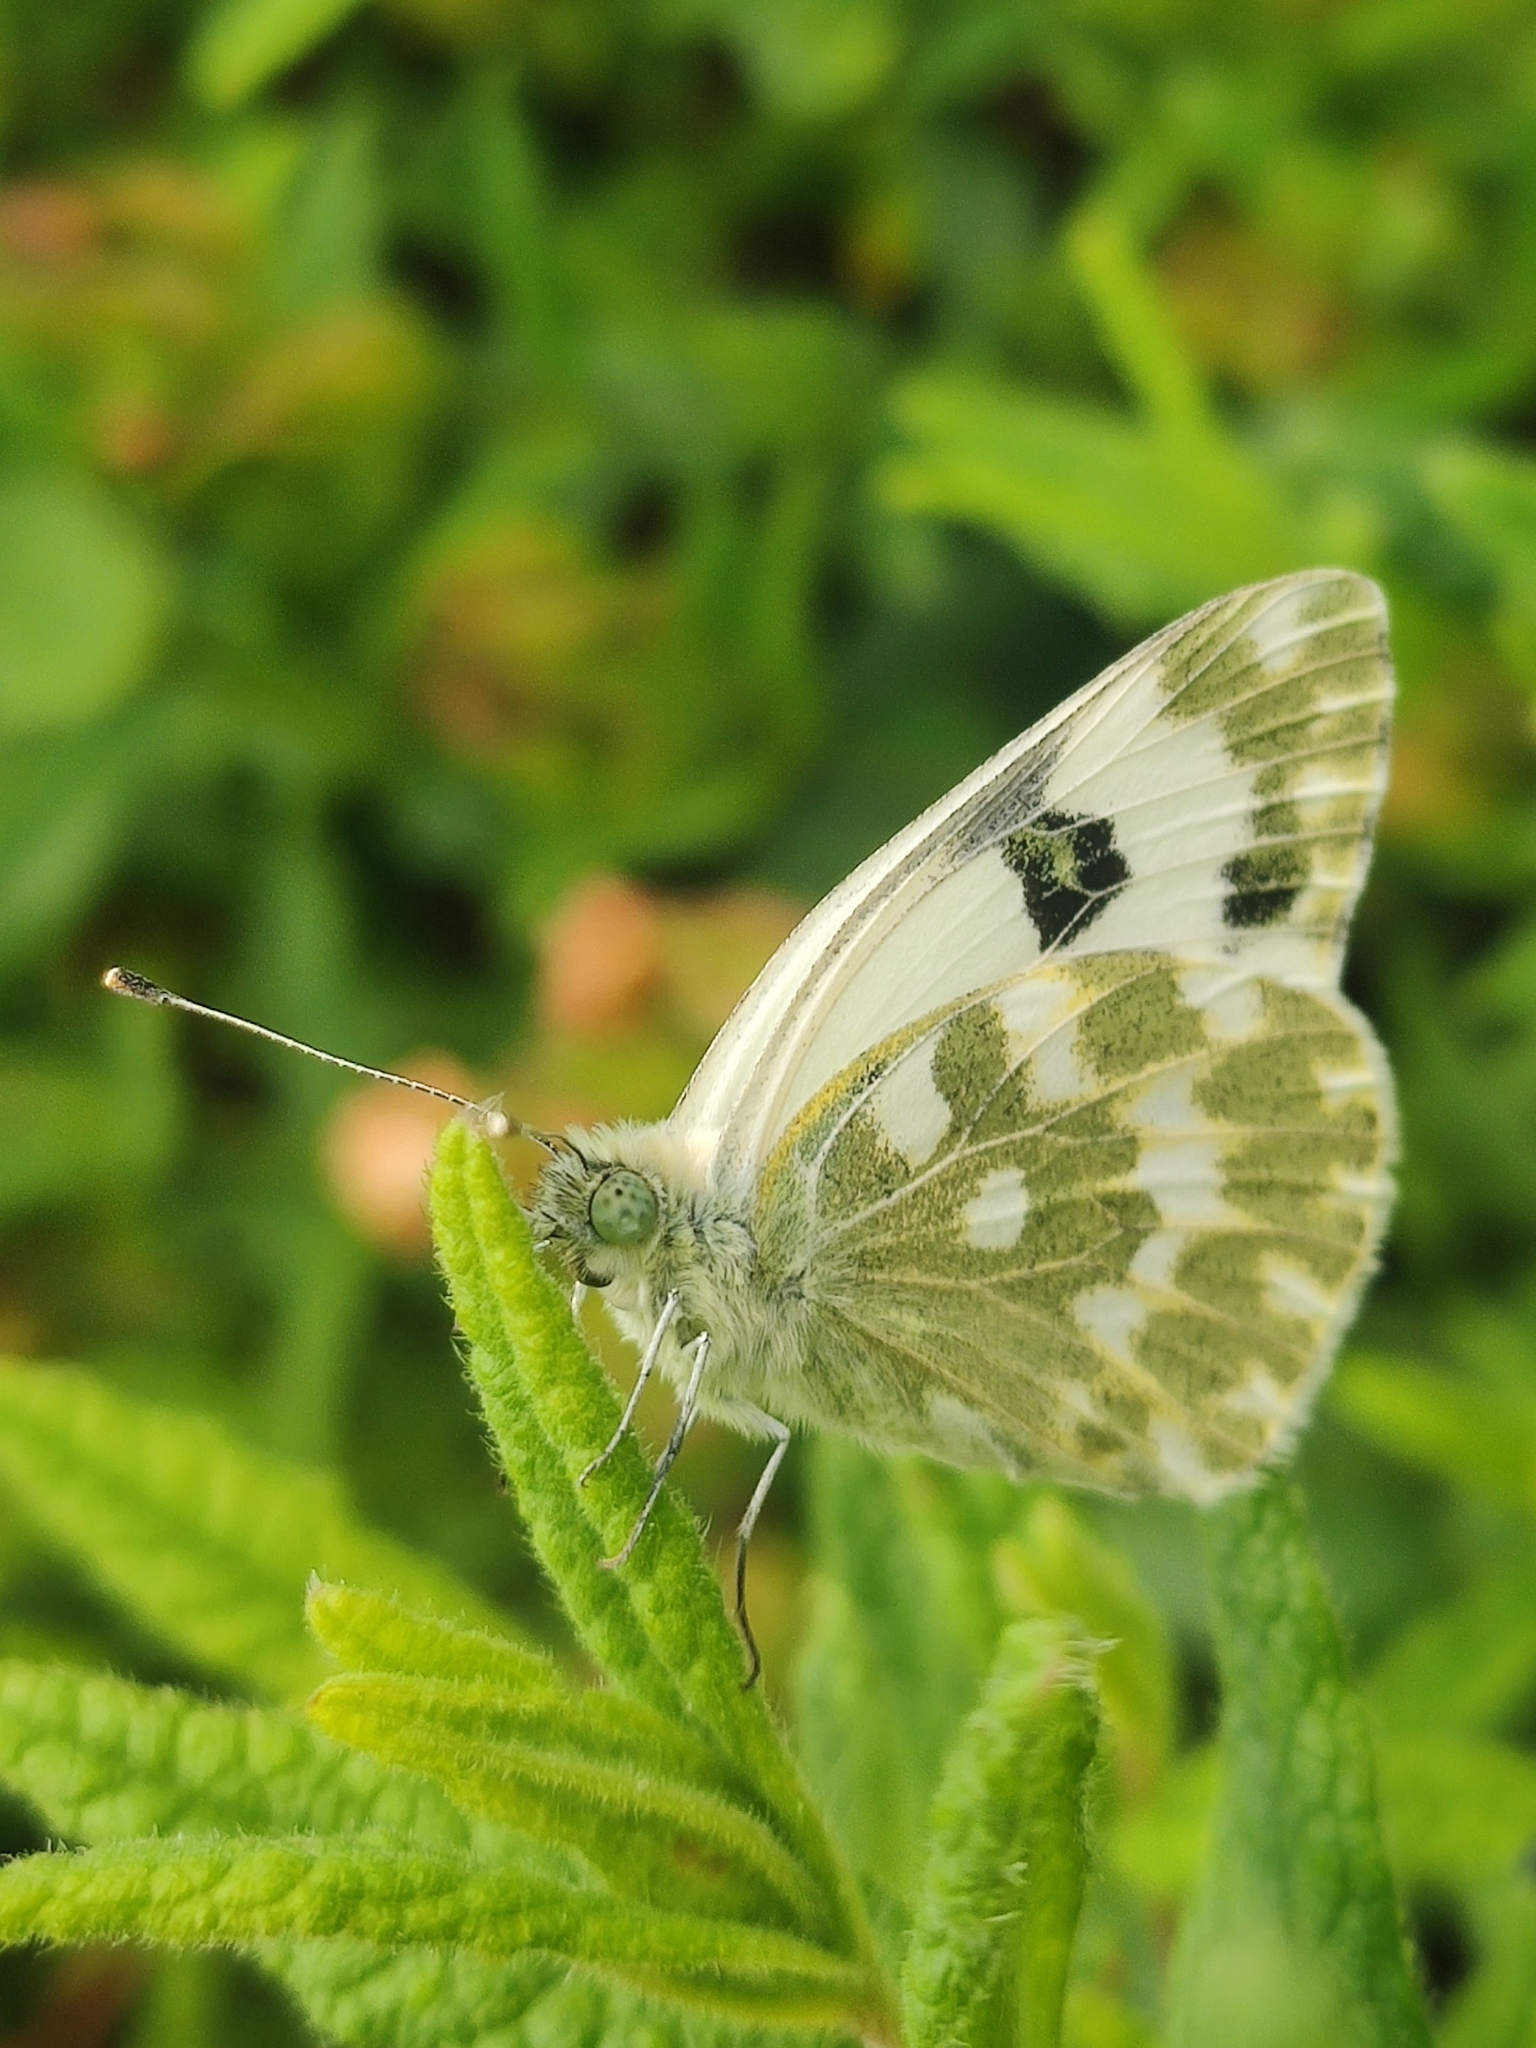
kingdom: Animalia
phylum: Arthropoda
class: Insecta
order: Lepidoptera
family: Pieridae
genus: Pontia
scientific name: Pontia daplidice
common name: Bath white
